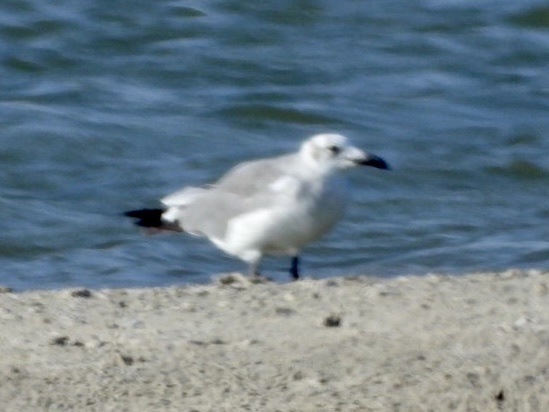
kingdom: Animalia
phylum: Chordata
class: Aves
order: Charadriiformes
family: Laridae
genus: Leucophaeus
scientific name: Leucophaeus atricilla
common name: Laughing gull
